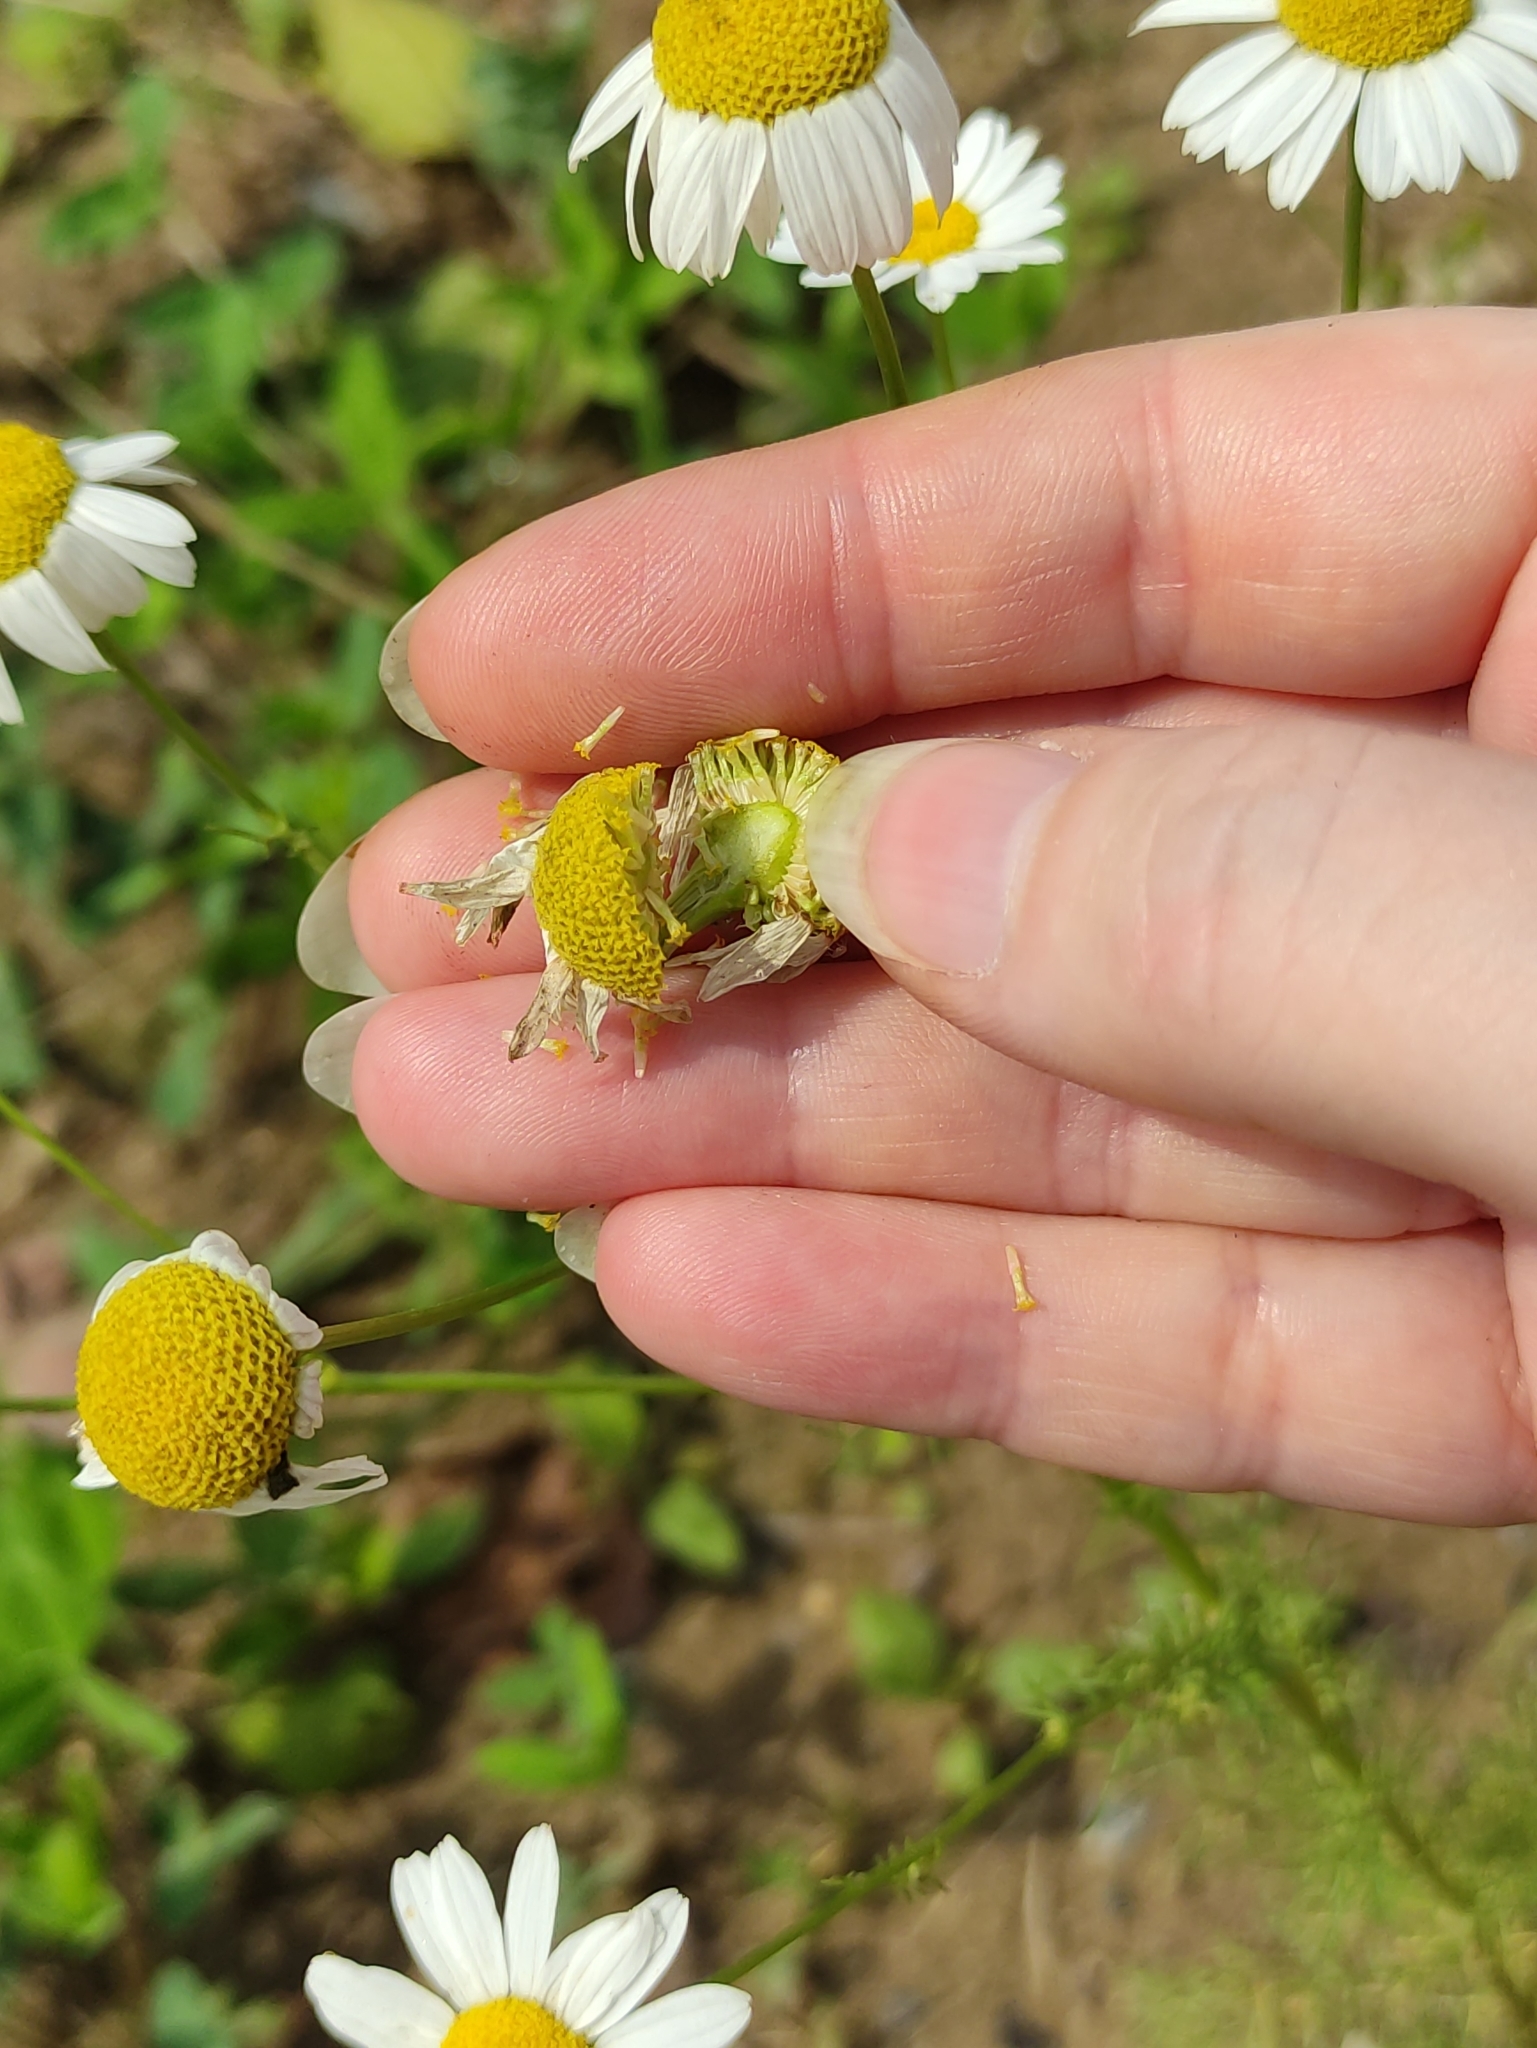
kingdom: Plantae
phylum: Tracheophyta
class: Magnoliopsida
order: Asterales
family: Asteraceae
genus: Tripleurospermum
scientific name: Tripleurospermum inodorum
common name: Scentless mayweed
